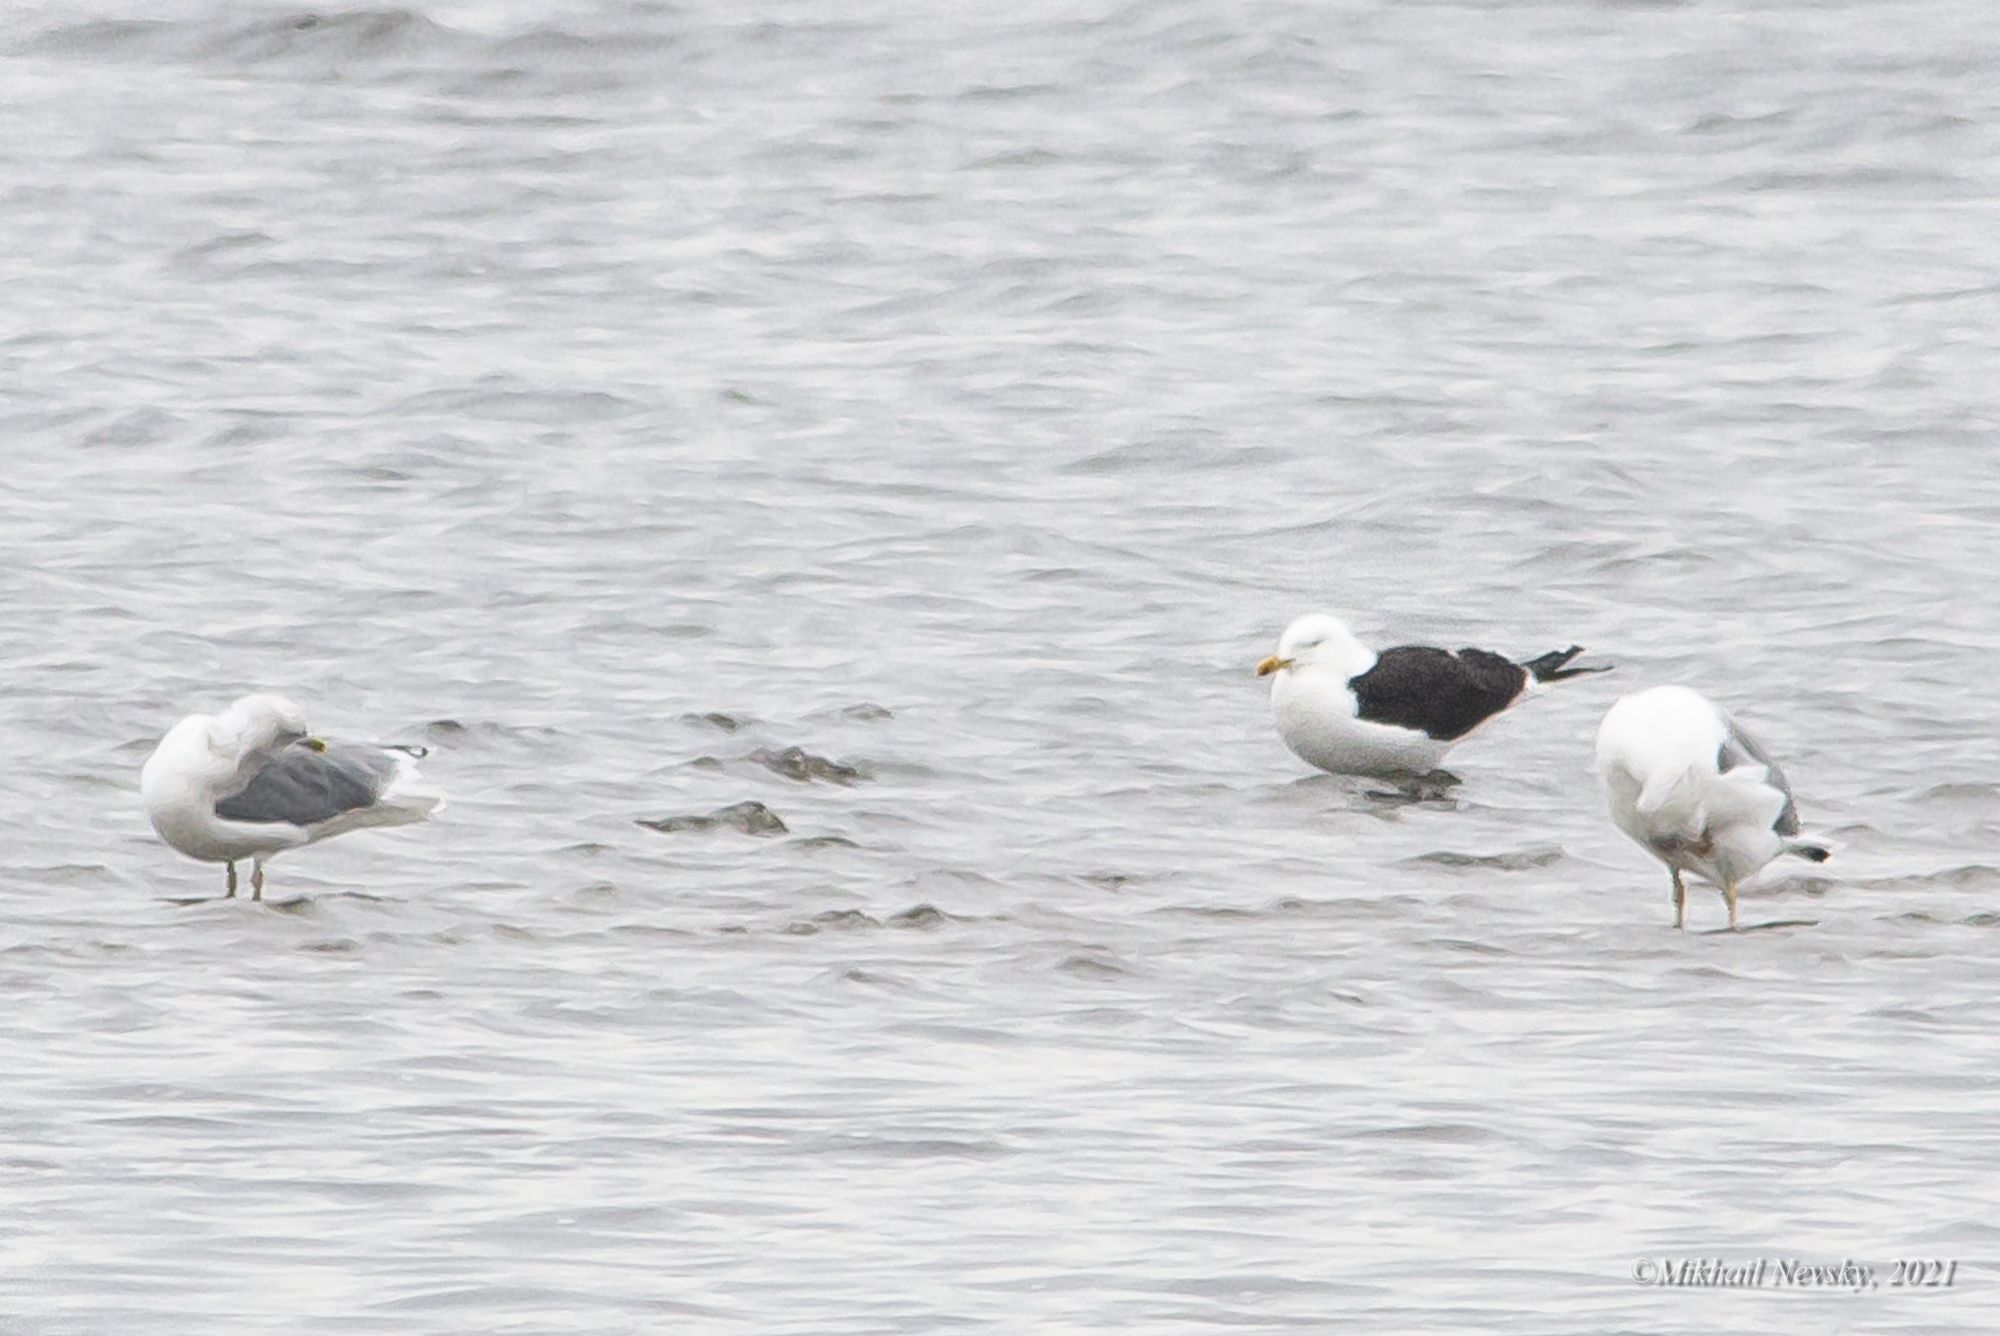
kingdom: Animalia
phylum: Chordata
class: Aves
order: Charadriiformes
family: Laridae
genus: Larus
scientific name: Larus fuscus
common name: Lesser black-backed gull
